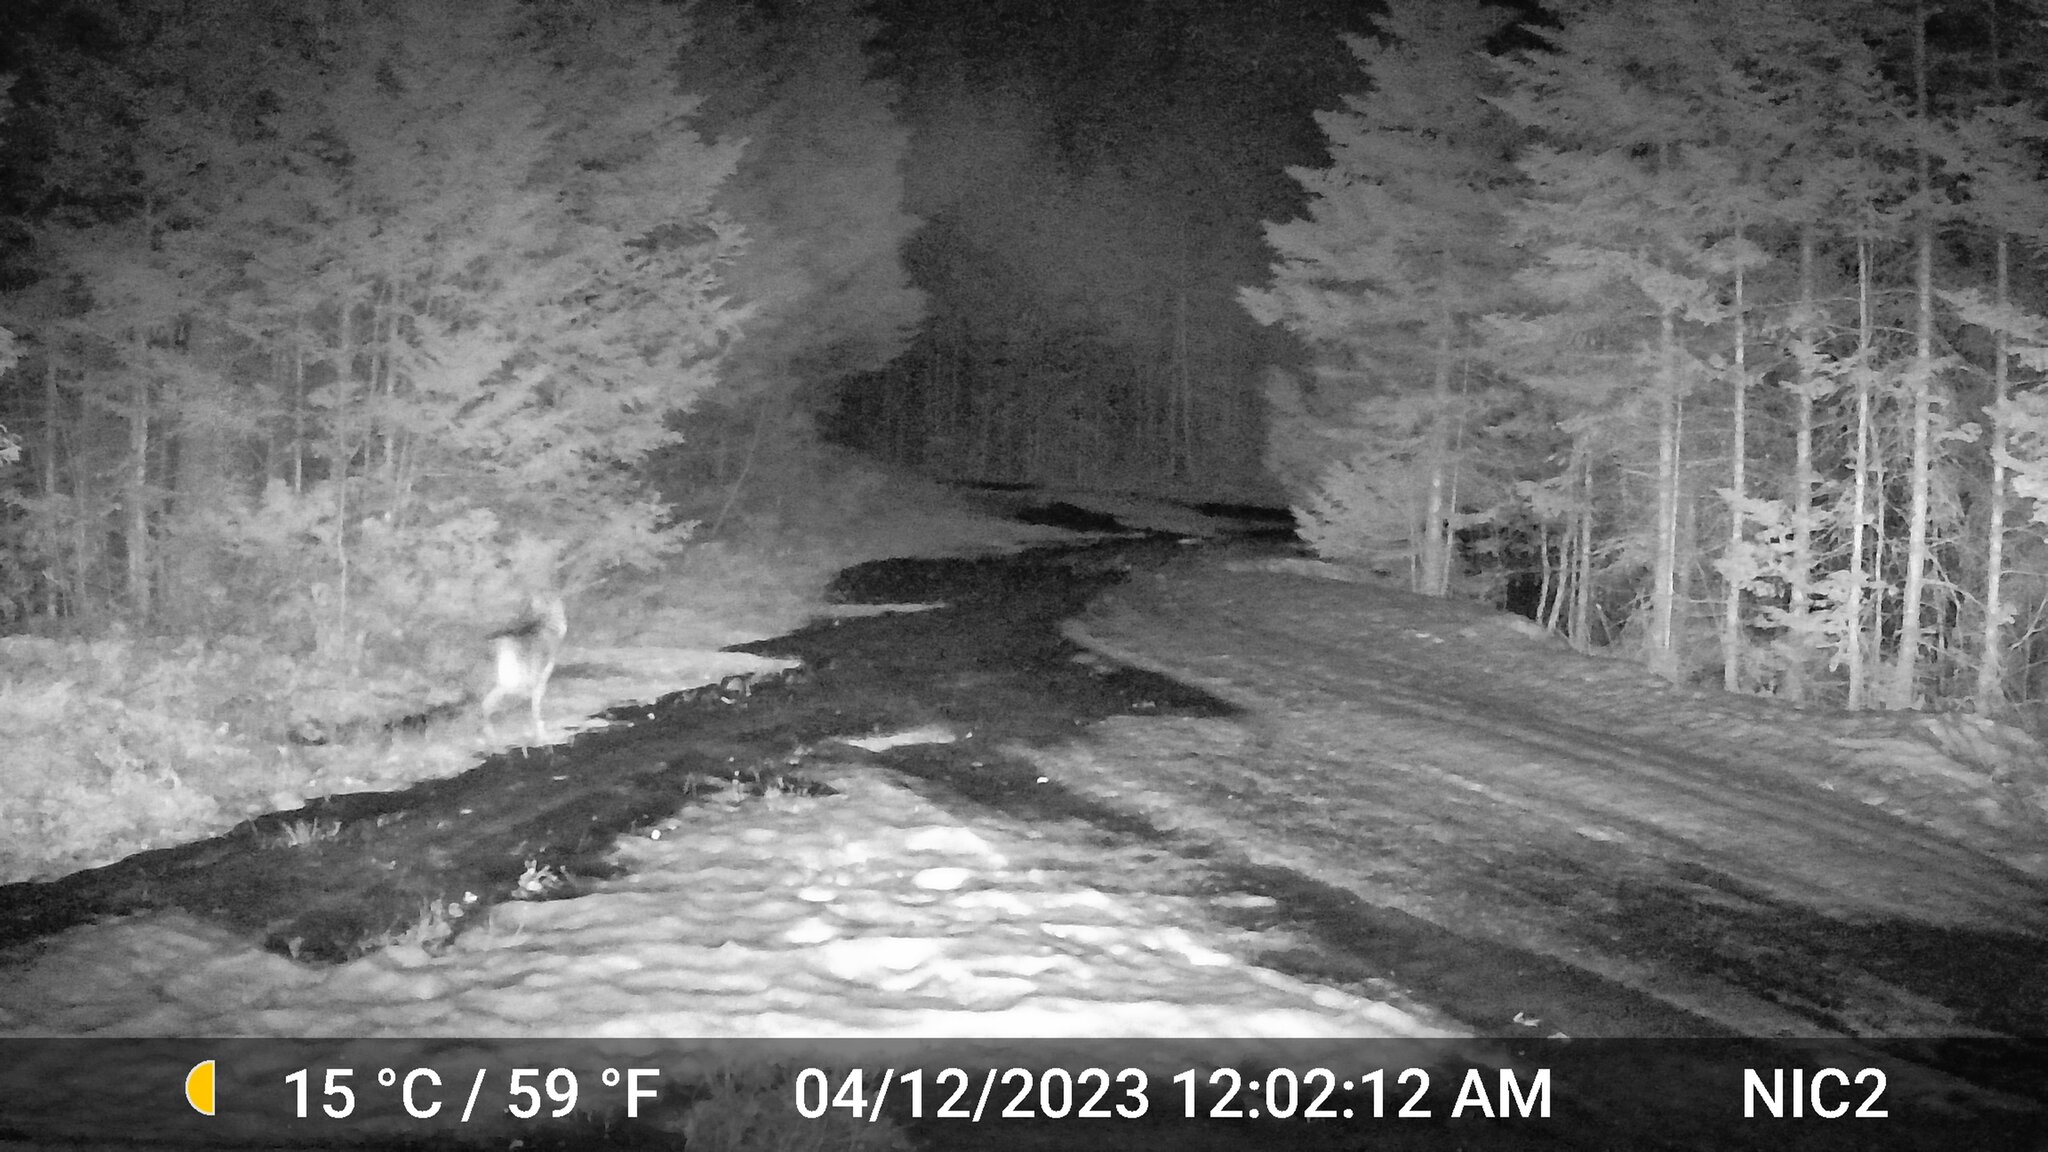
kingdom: Animalia
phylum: Chordata
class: Mammalia
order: Carnivora
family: Canidae
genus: Canis
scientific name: Canis latrans
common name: Coyote
